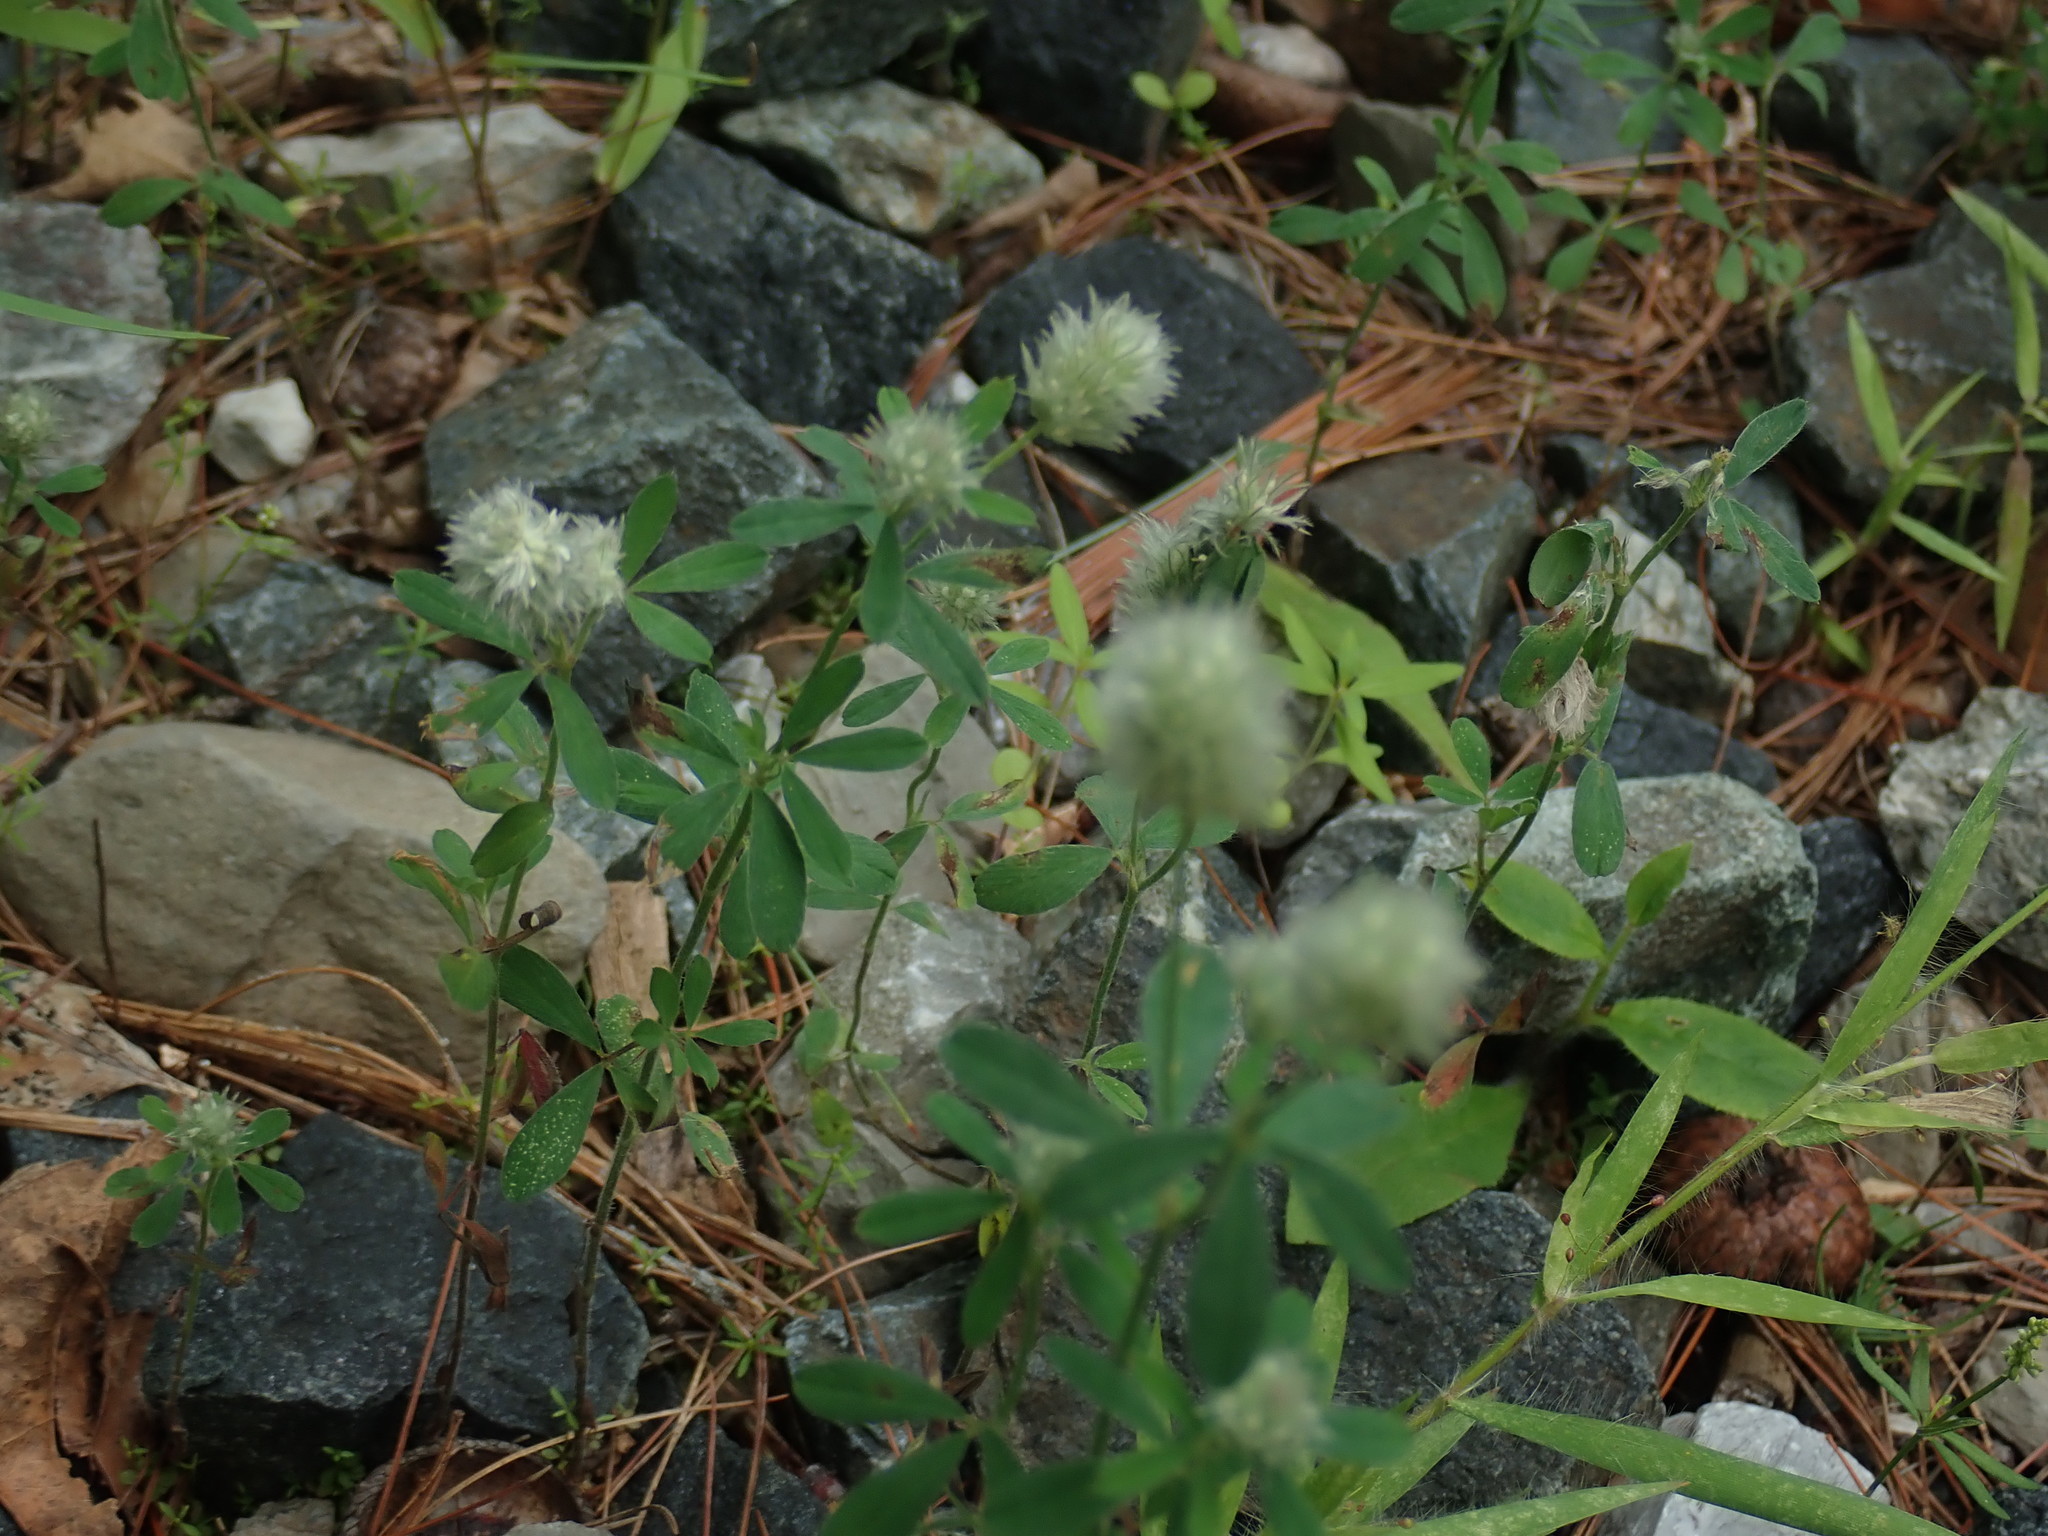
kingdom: Plantae
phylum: Tracheophyta
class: Magnoliopsida
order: Fabales
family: Fabaceae
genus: Trifolium
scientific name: Trifolium arvense
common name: Hare's-foot clover
